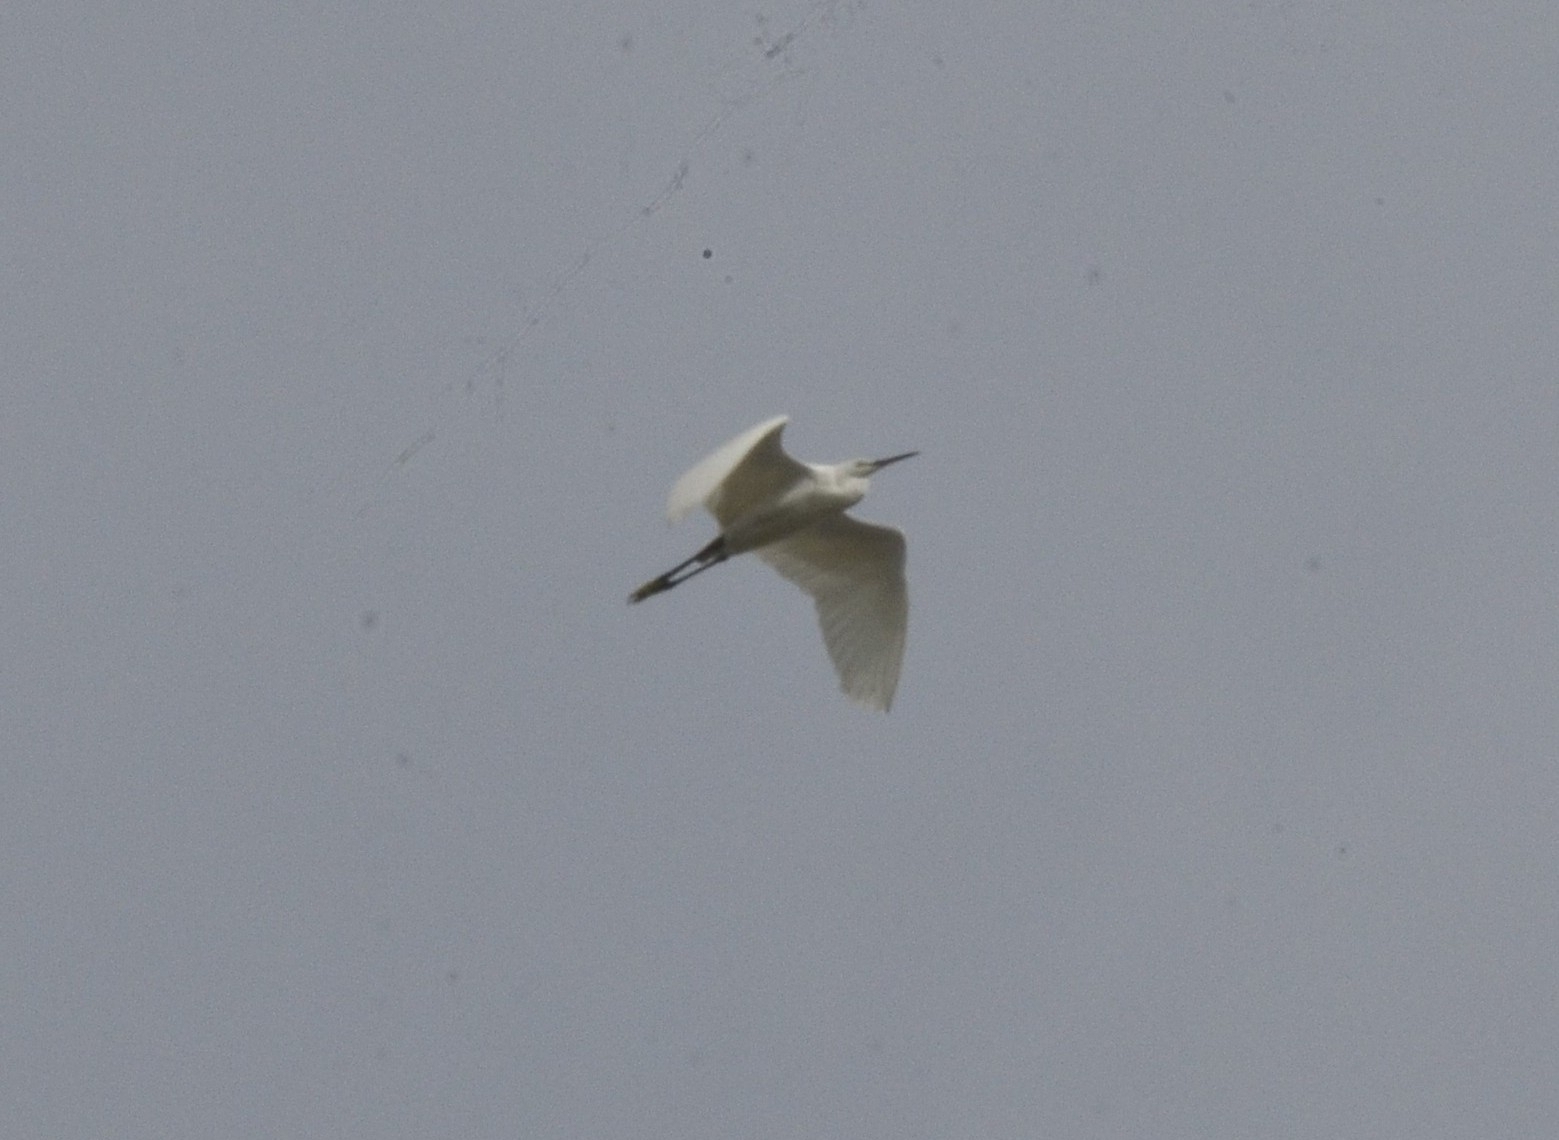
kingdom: Animalia
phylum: Chordata
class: Aves
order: Pelecaniformes
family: Ardeidae
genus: Egretta
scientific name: Egretta garzetta
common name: Little egret
